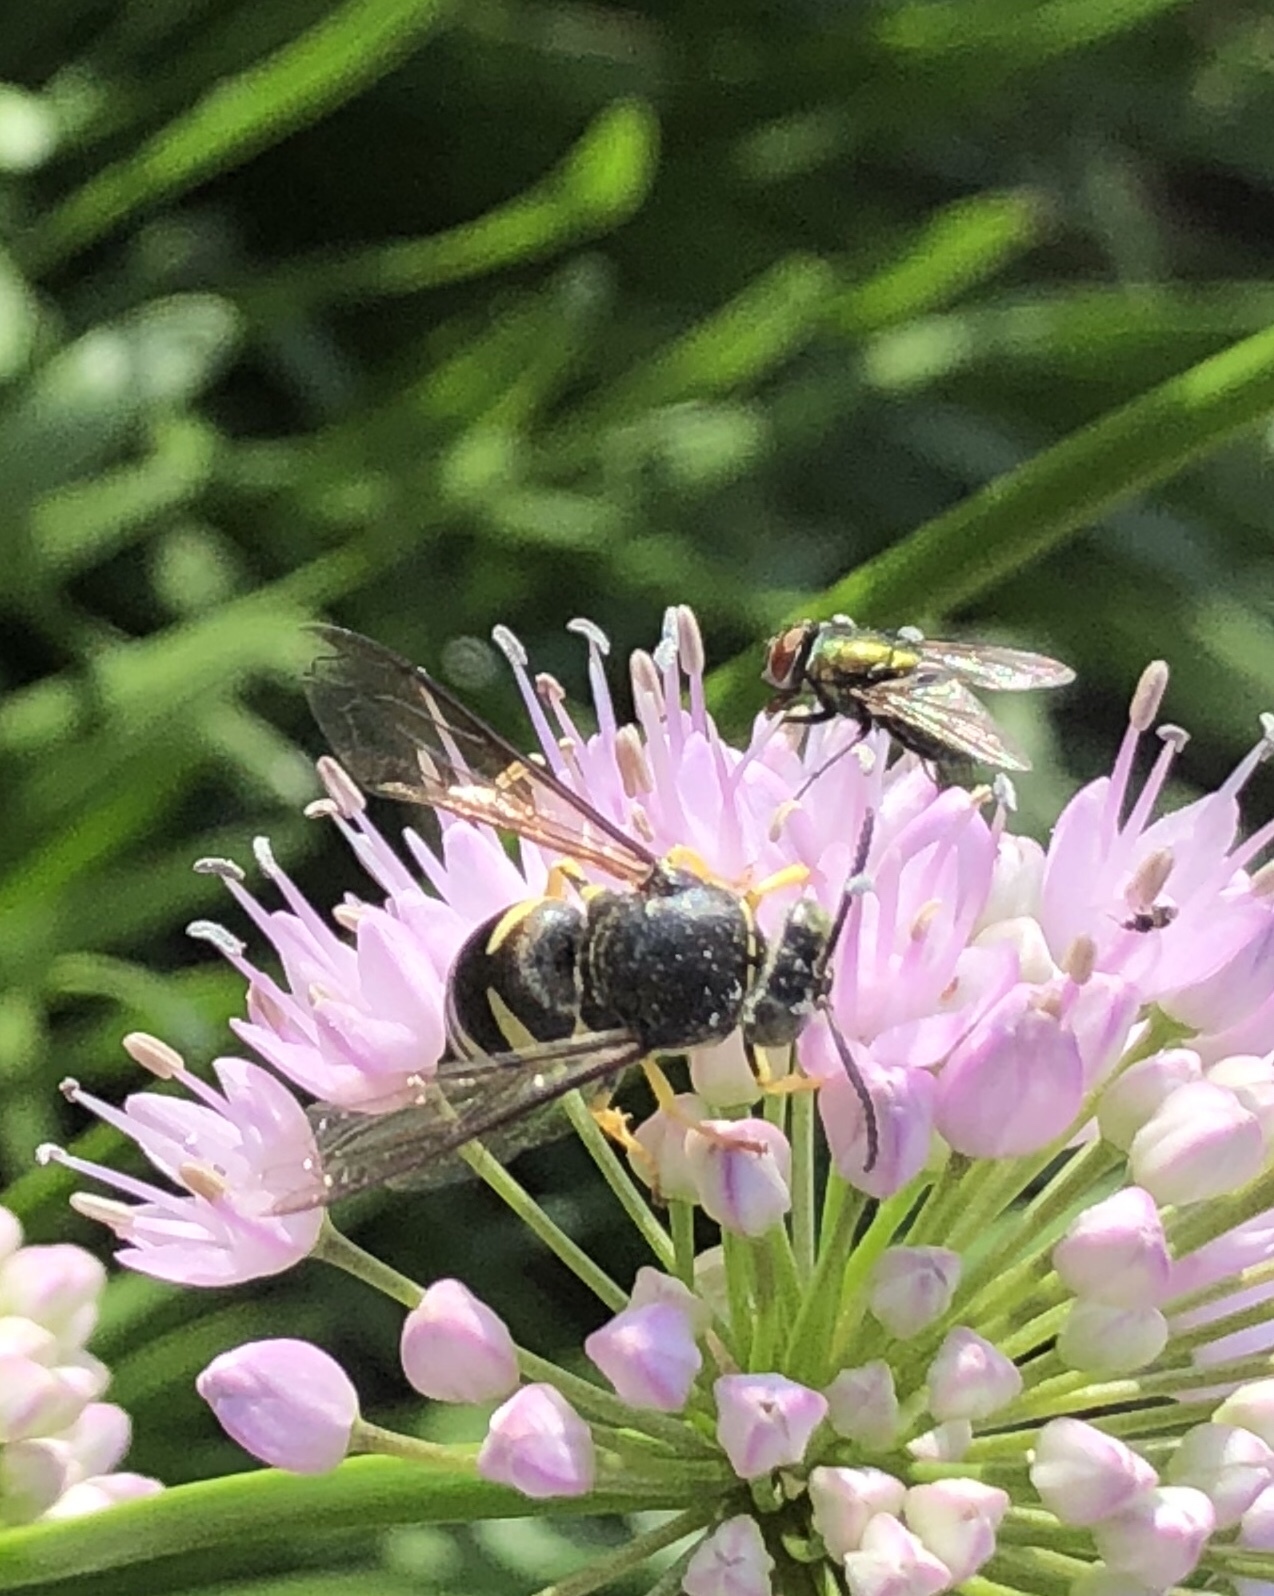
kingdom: Animalia
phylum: Arthropoda
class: Insecta
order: Hymenoptera
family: Crabronidae
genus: Bicyrtes
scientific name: Bicyrtes quadrifasciatus
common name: Four-banded stink bug hunter wasp
